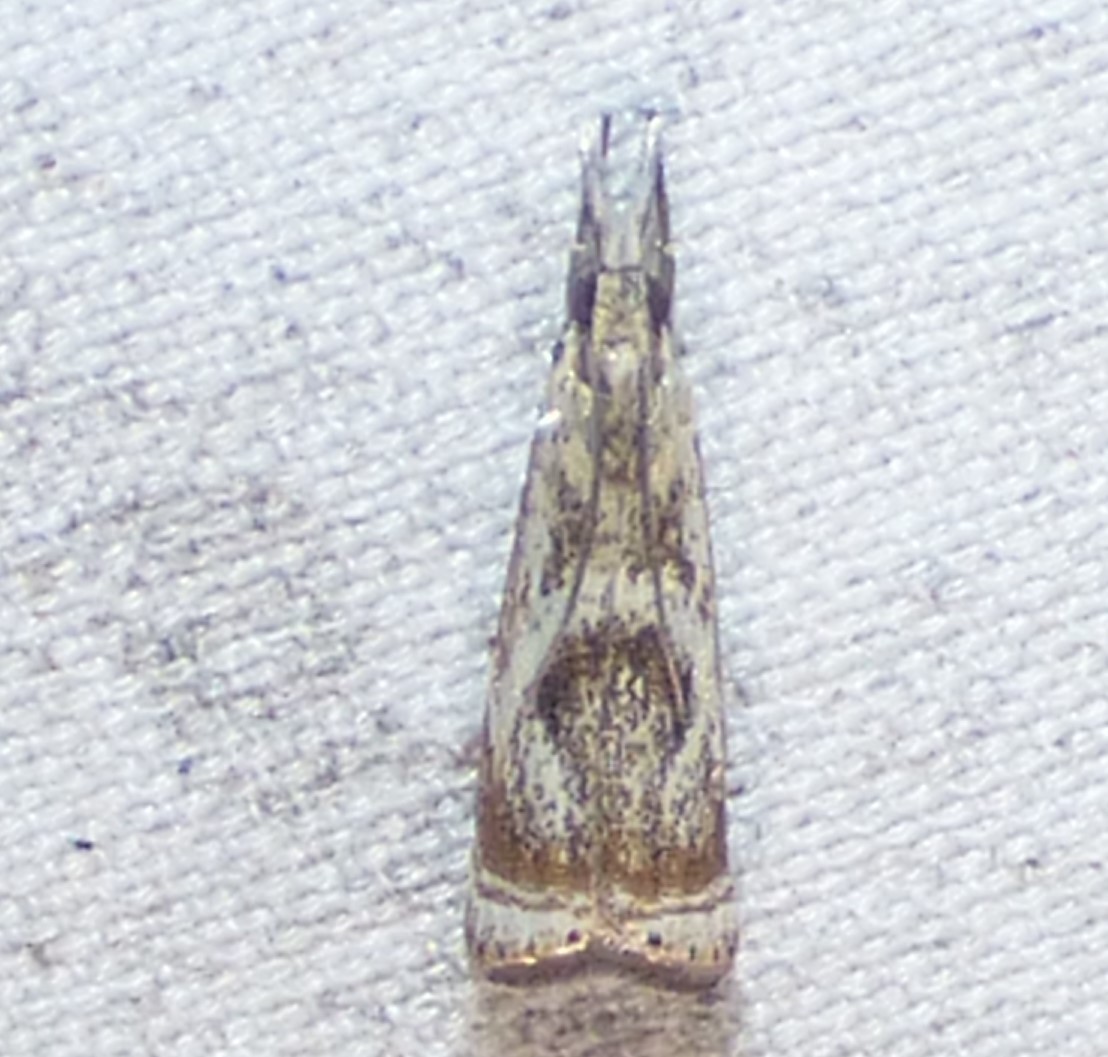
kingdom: Animalia
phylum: Arthropoda
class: Insecta
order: Lepidoptera
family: Crambidae
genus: Microcrambus
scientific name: Microcrambus elegans
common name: Elegant grass-veneer
